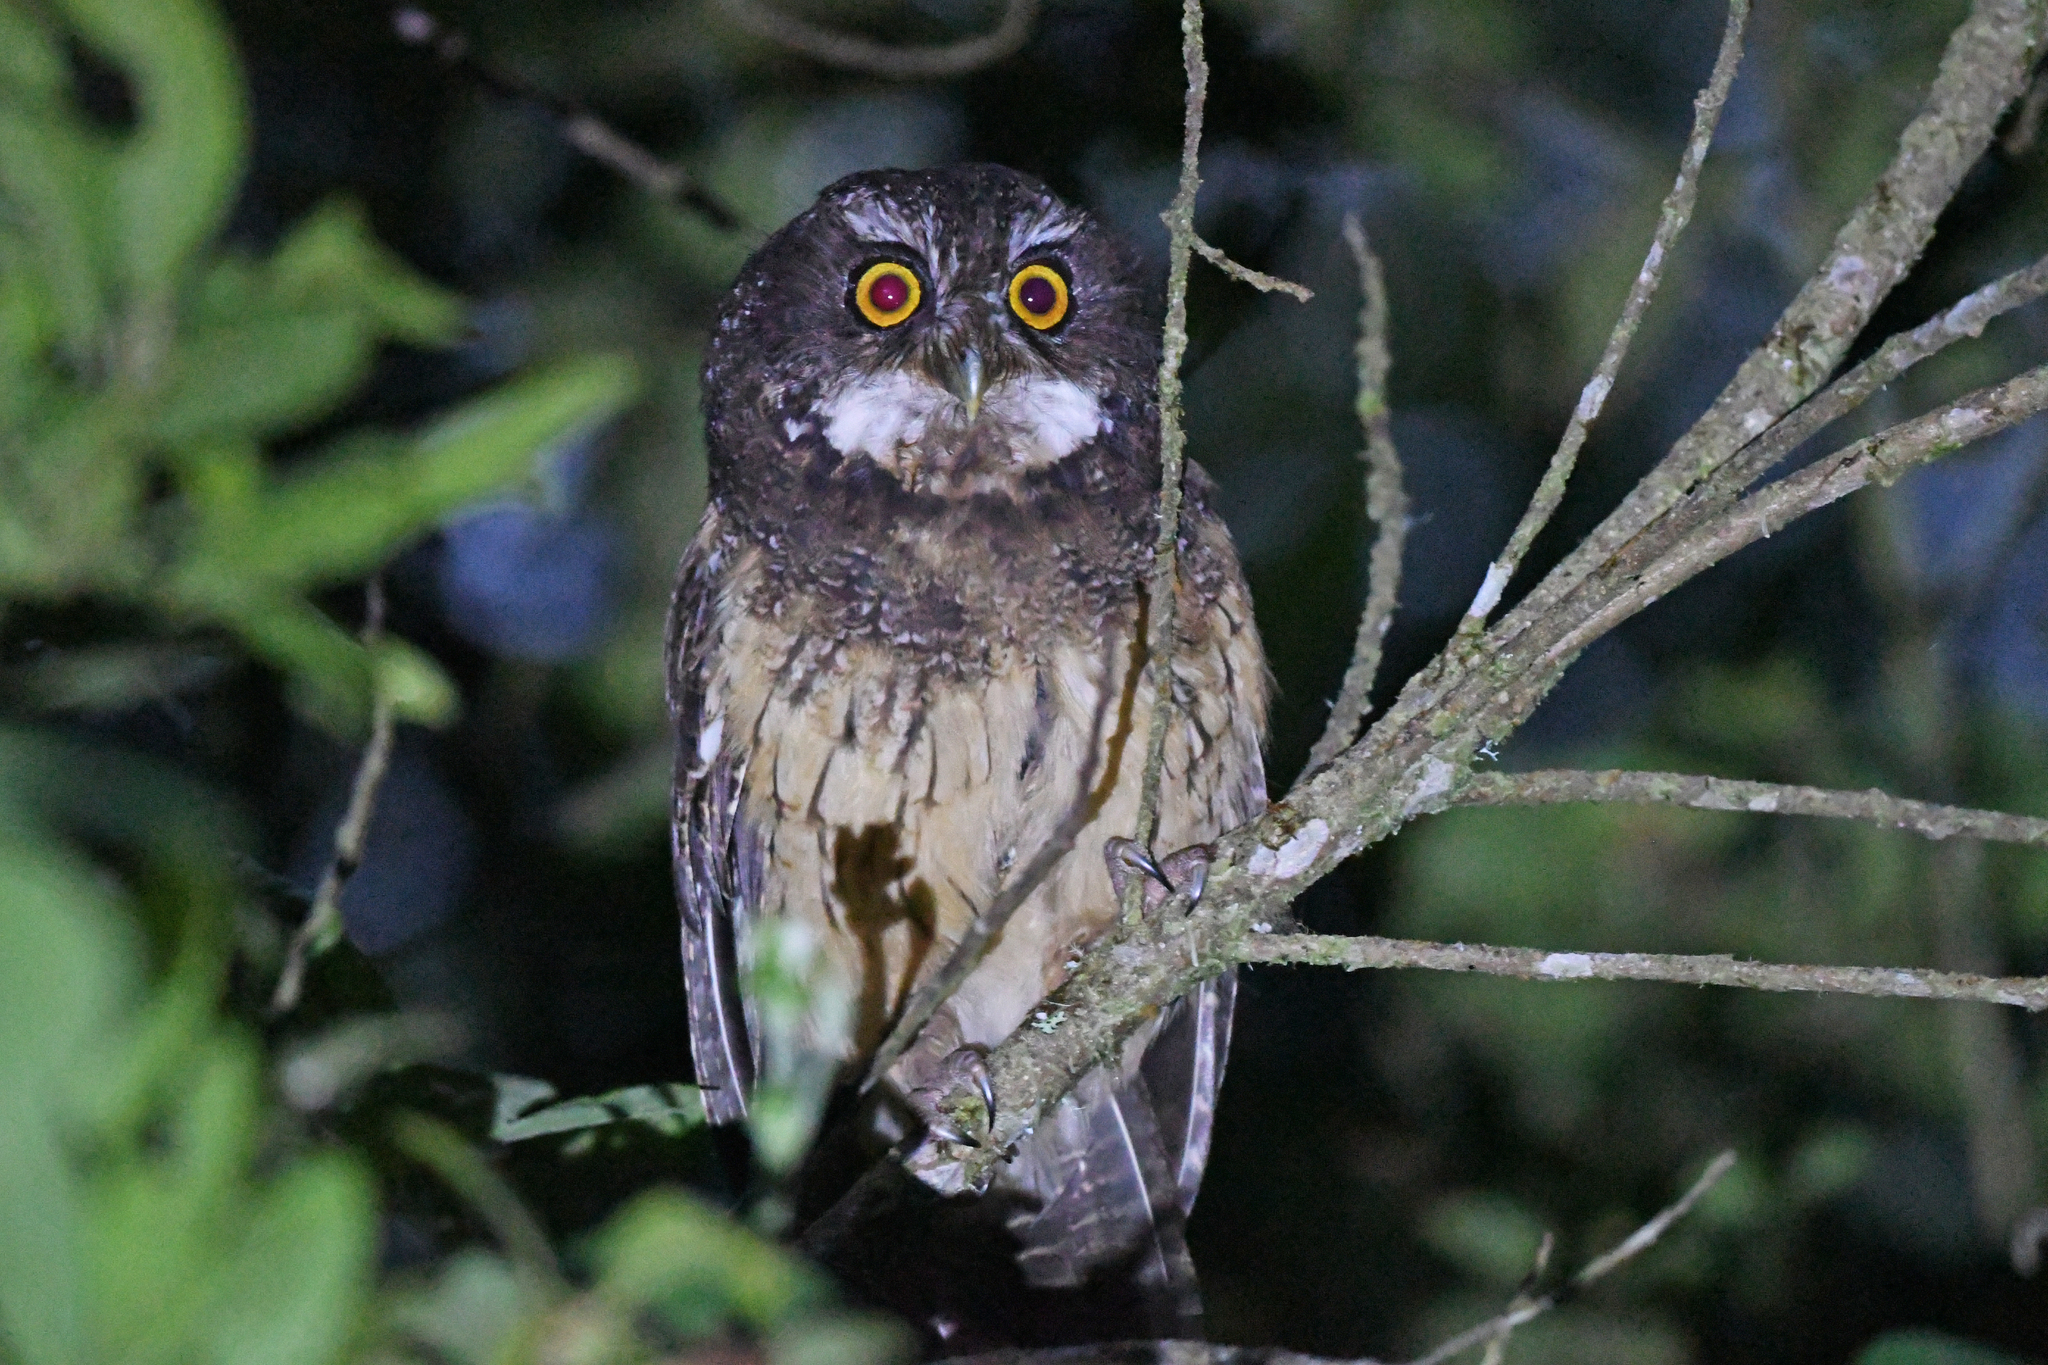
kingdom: Animalia
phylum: Chordata
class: Aves
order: Strigiformes
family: Strigidae
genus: Megascops
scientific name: Megascops albogularis
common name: White-throated screech owl
